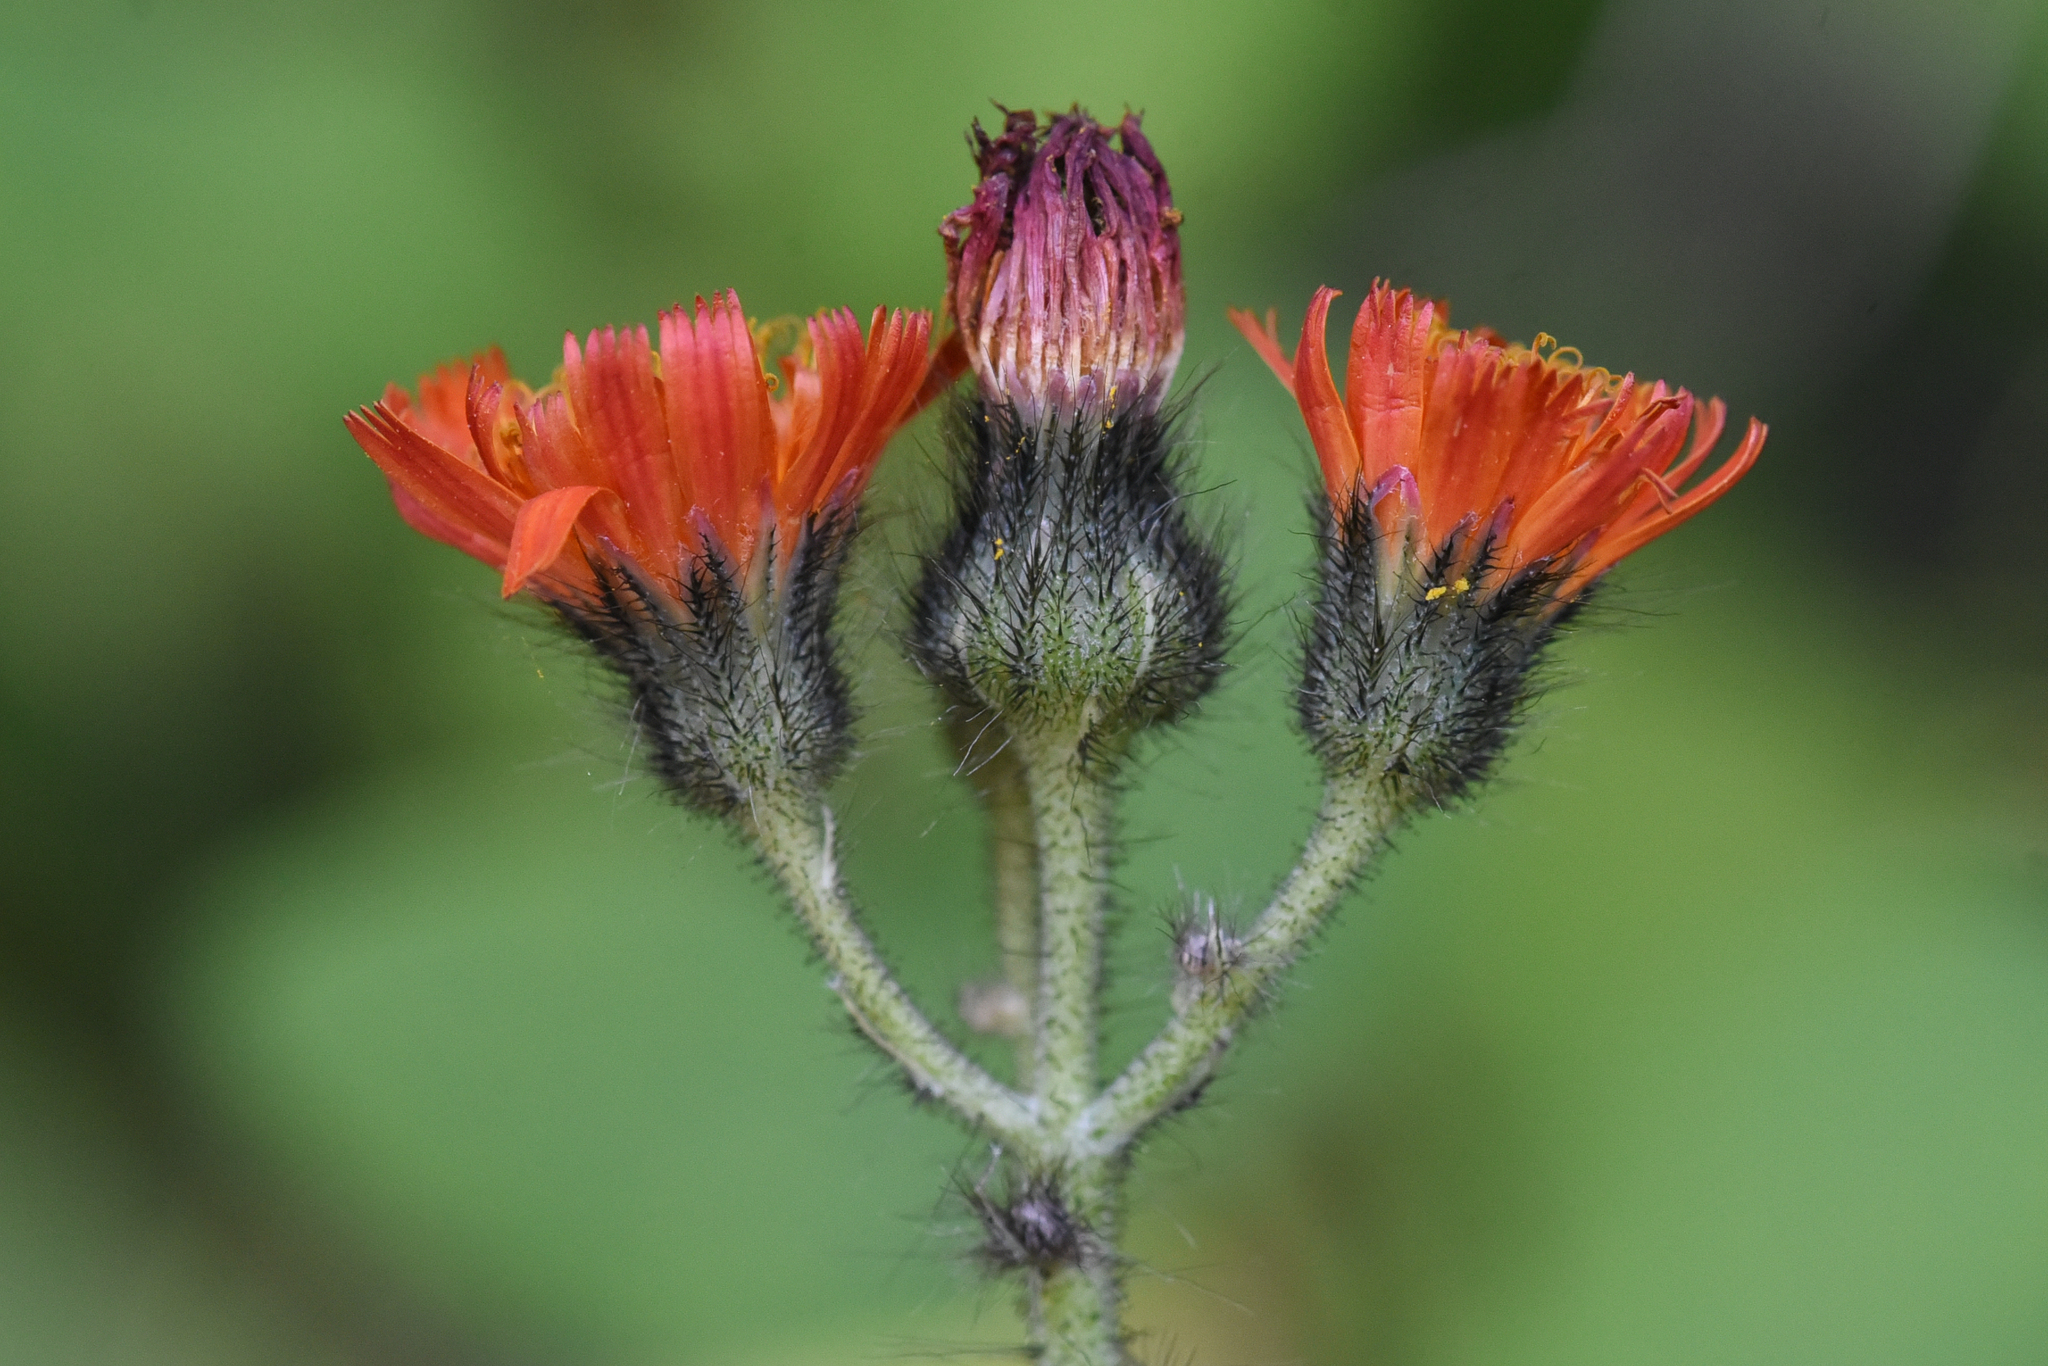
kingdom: Plantae
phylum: Tracheophyta
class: Magnoliopsida
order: Asterales
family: Asteraceae
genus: Pilosella
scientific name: Pilosella aurantiaca
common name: Fox-and-cubs
